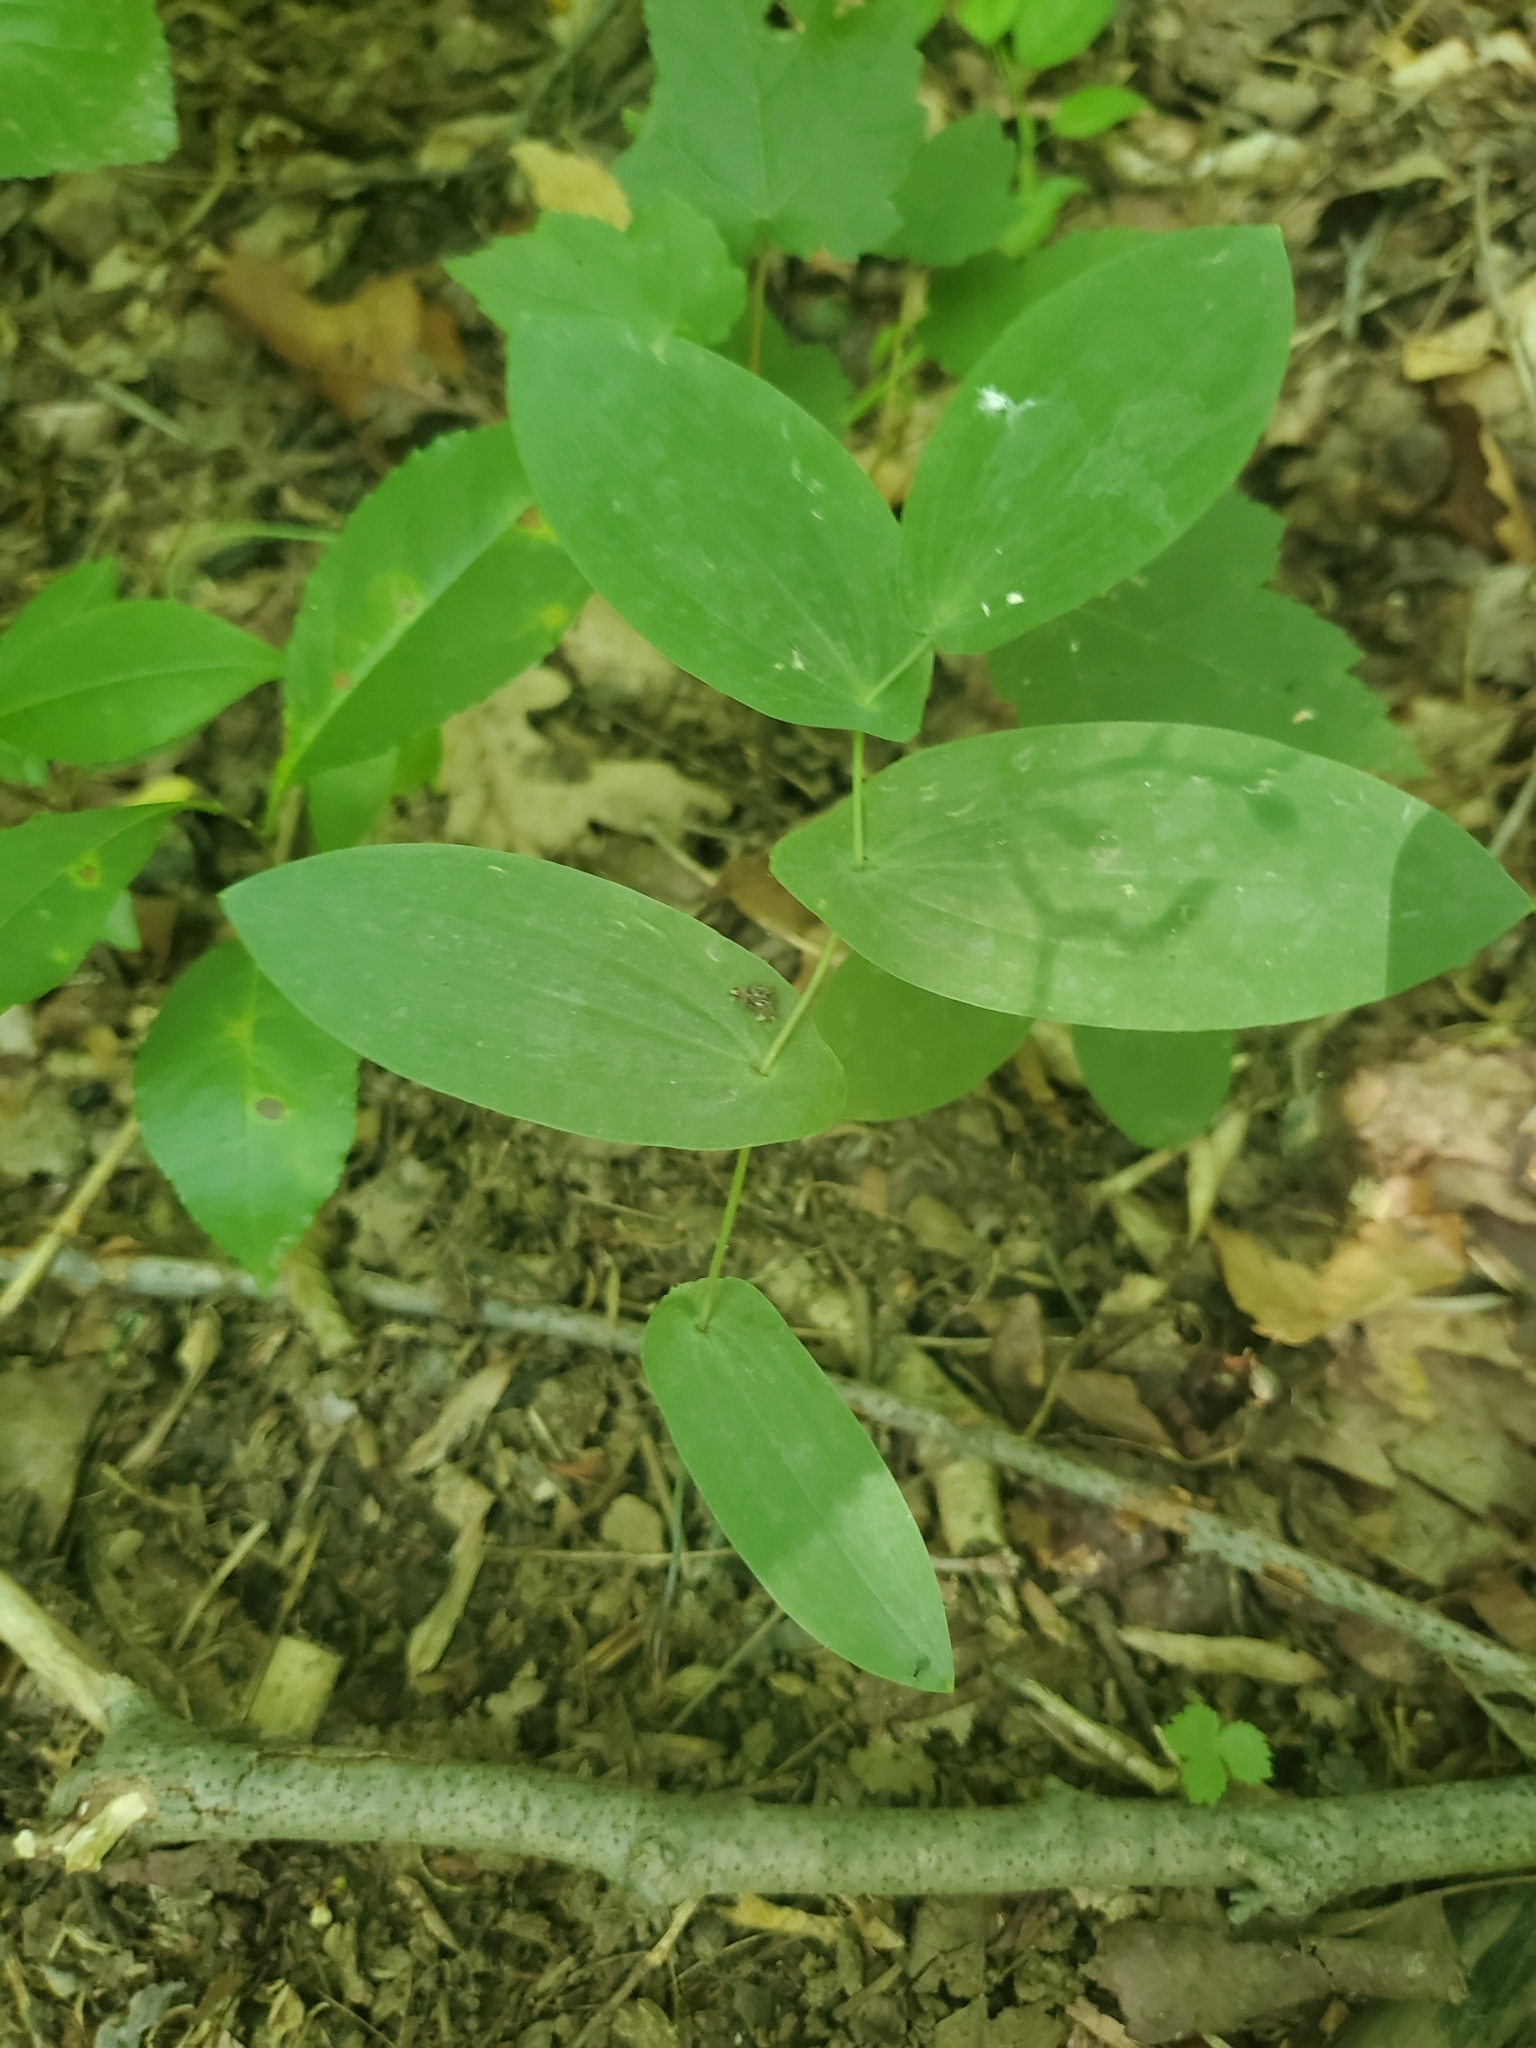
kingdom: Plantae
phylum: Tracheophyta
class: Liliopsida
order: Liliales
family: Colchicaceae
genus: Uvularia
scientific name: Uvularia perfoliata
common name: Perfoliate bellwort
